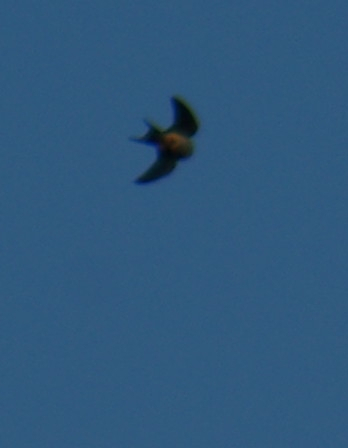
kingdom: Animalia
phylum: Chordata
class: Aves
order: Passeriformes
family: Hirundinidae
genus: Hirundo
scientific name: Hirundo rustica
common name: Barn swallow
